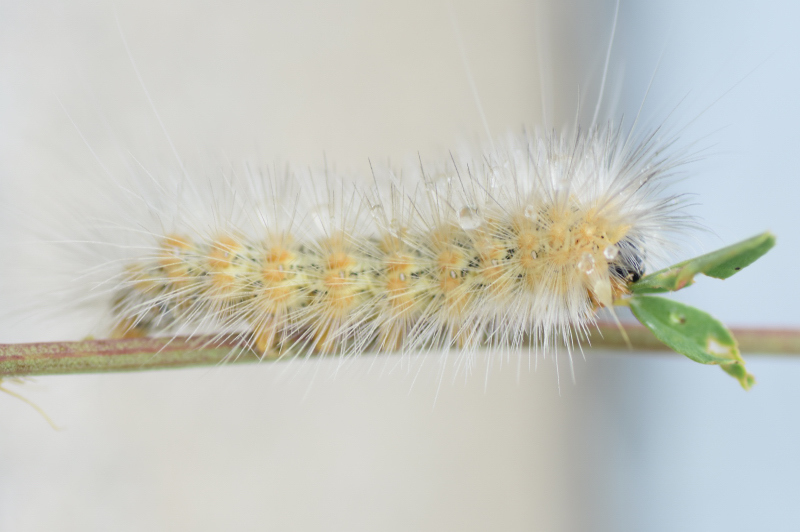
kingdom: Animalia
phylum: Arthropoda
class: Insecta
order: Lepidoptera
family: Erebidae
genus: Estigmene
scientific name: Estigmene acrea
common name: Salt marsh moth
